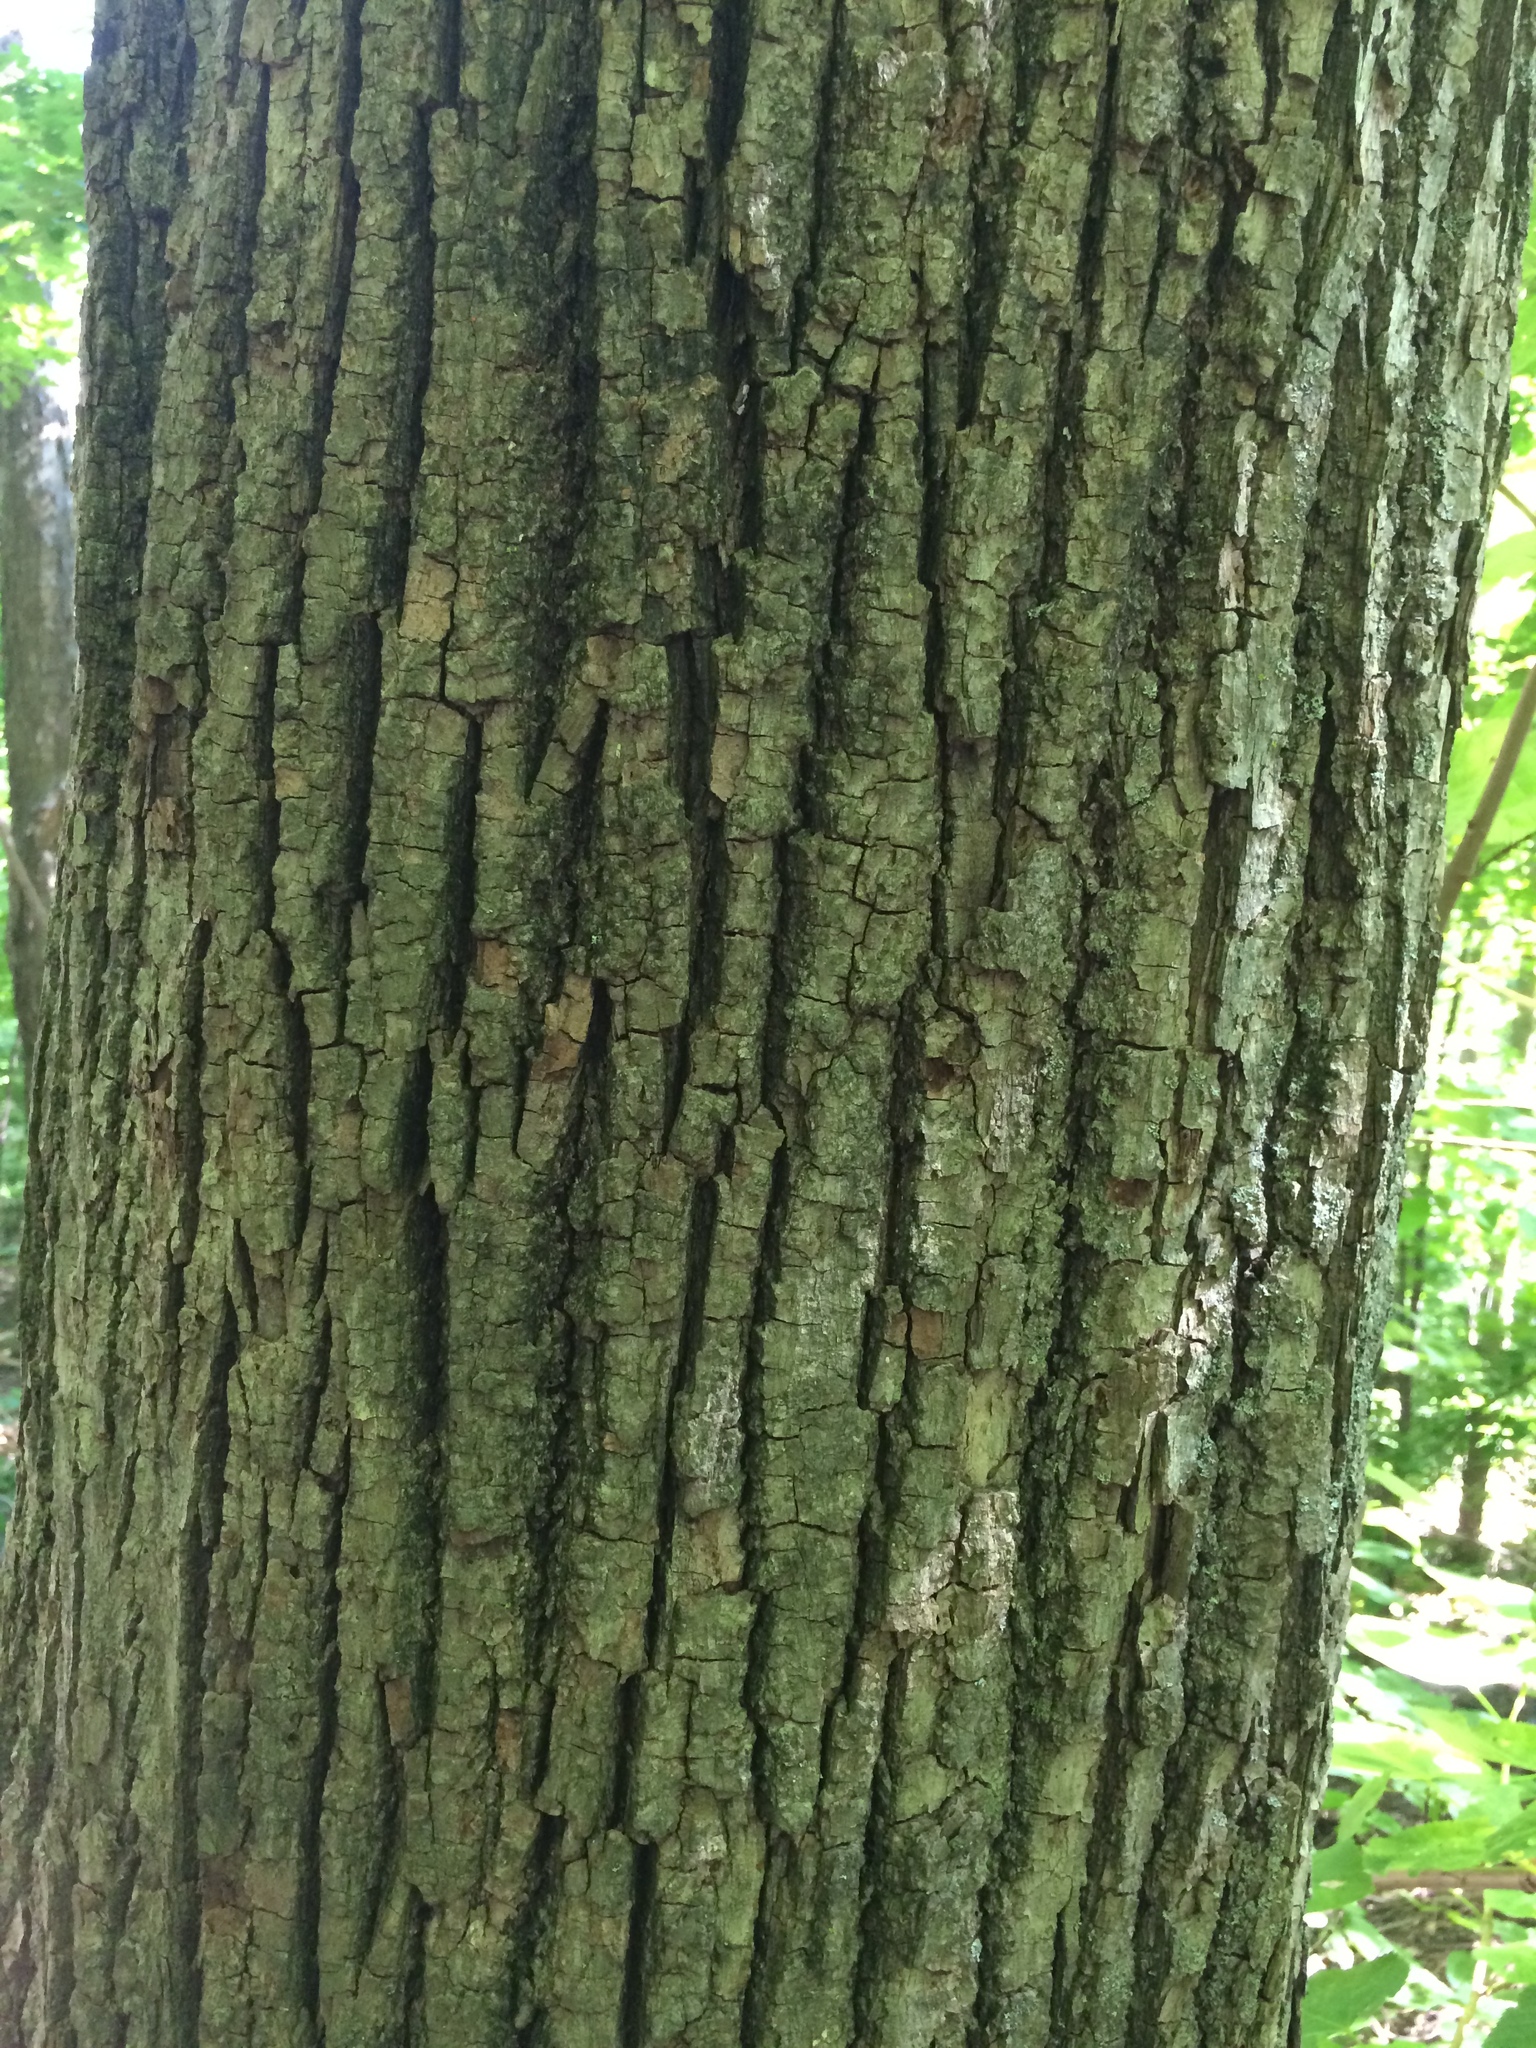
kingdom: Plantae
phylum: Tracheophyta
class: Magnoliopsida
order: Malvales
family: Malvaceae
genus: Tilia
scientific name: Tilia americana
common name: Basswood
